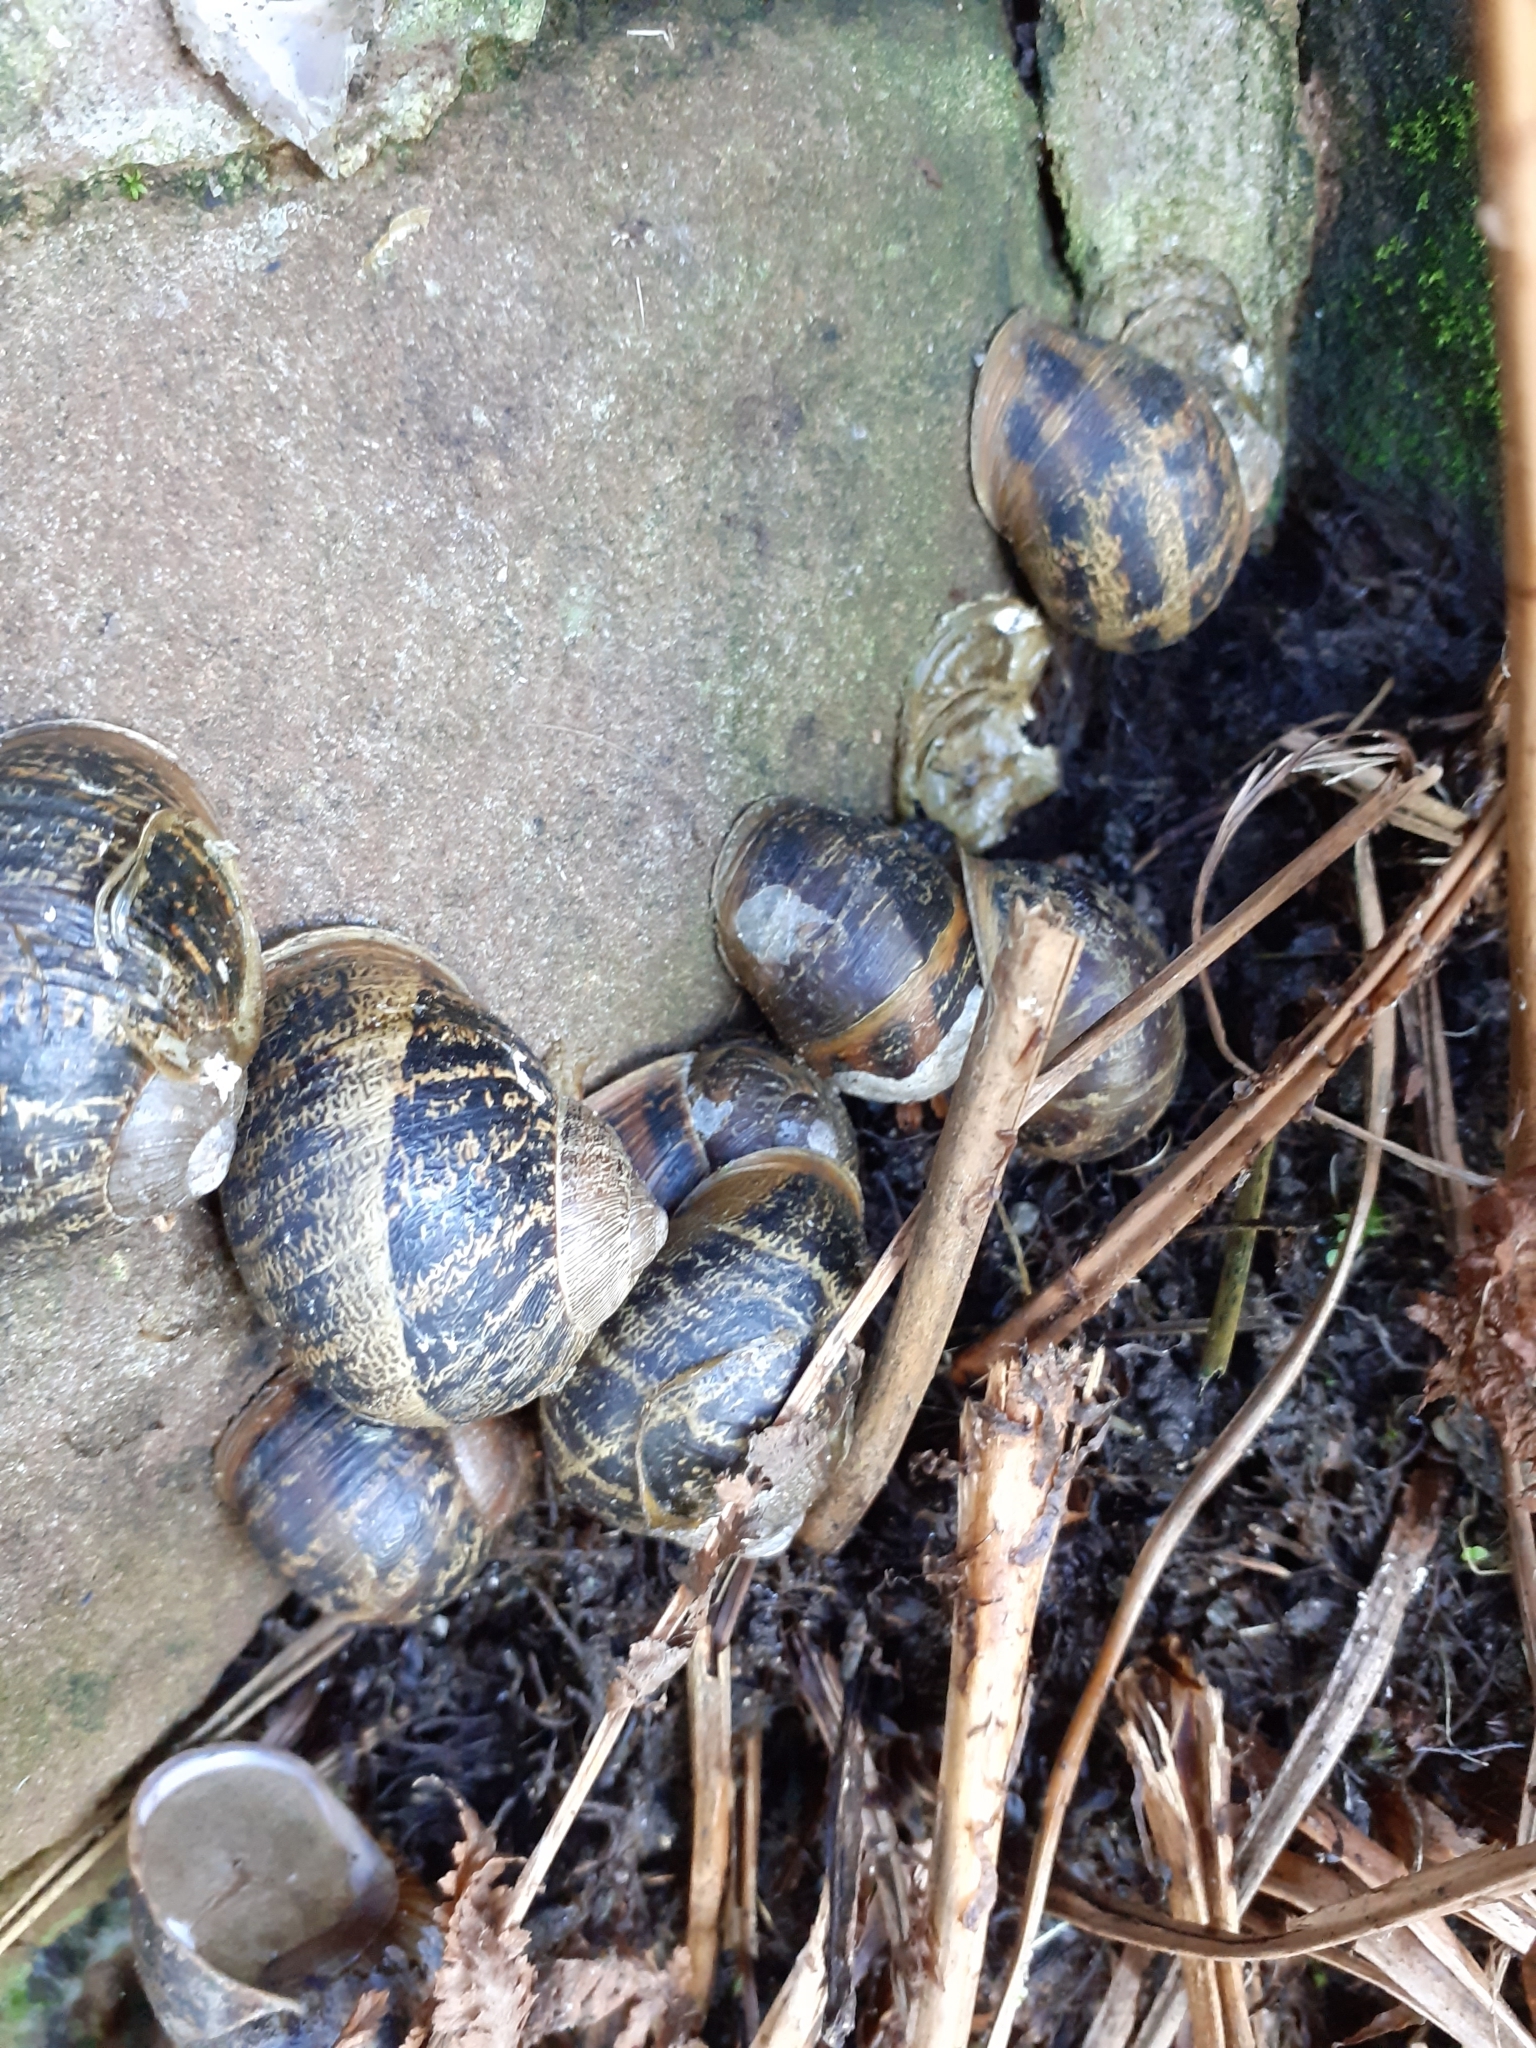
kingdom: Animalia
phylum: Mollusca
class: Gastropoda
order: Stylommatophora
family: Helicidae
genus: Cornu
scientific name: Cornu aspersum
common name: Brown garden snail
